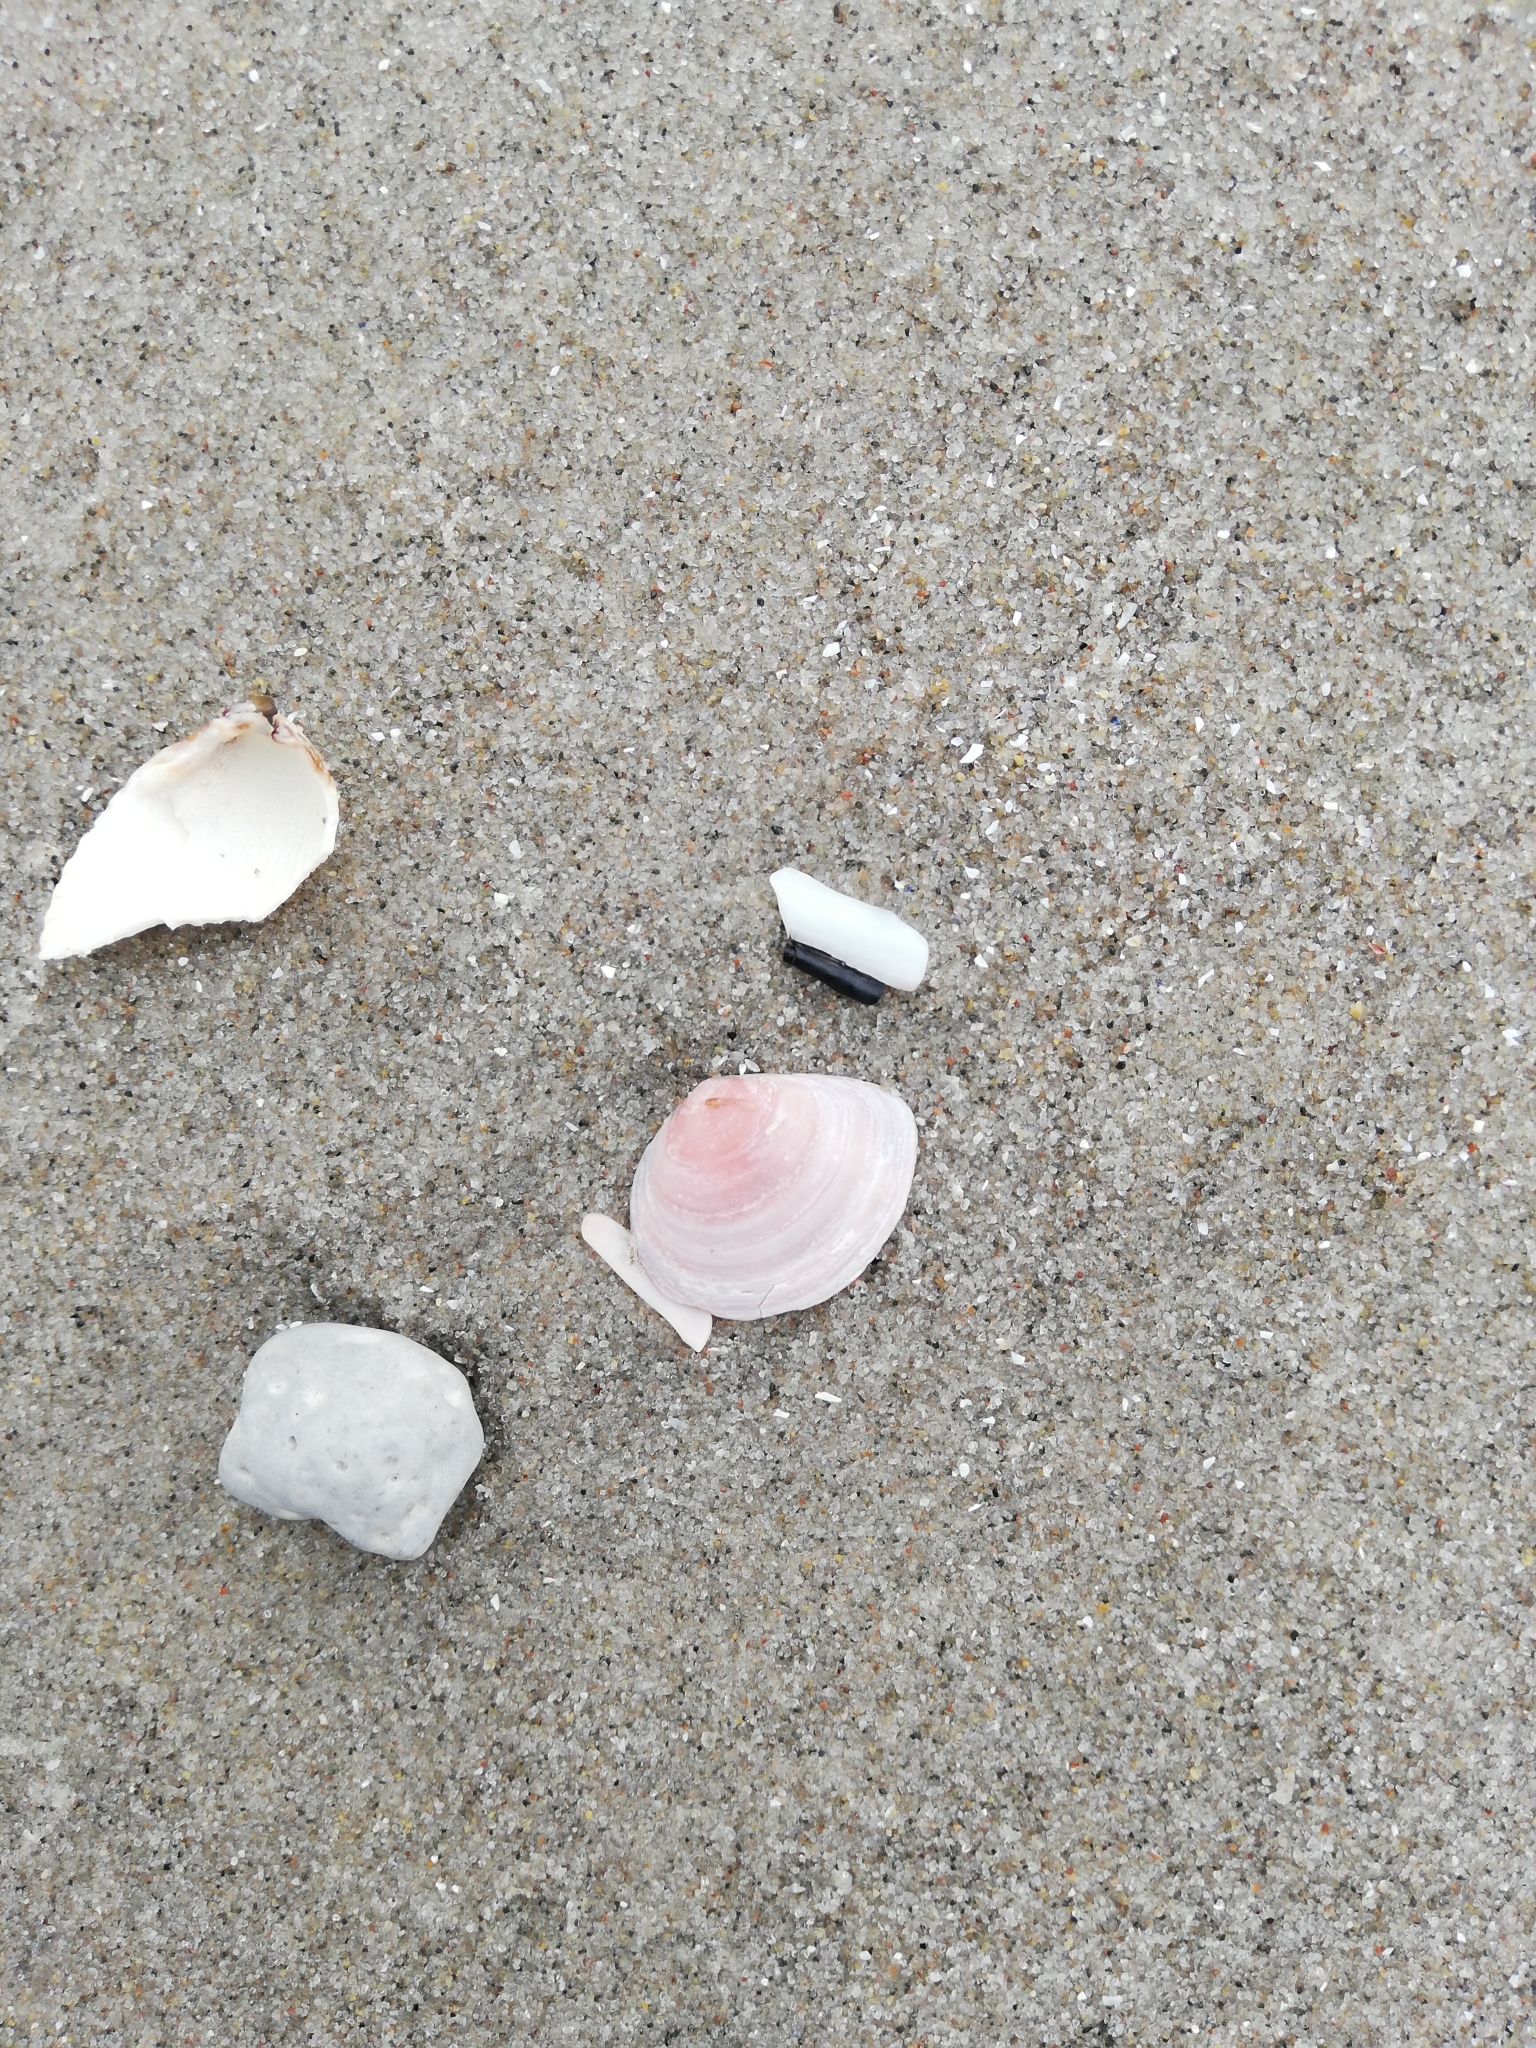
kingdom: Animalia
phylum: Mollusca
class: Bivalvia
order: Cardiida
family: Tellinidae
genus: Macoma
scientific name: Macoma balthica
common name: Baltic tellin
